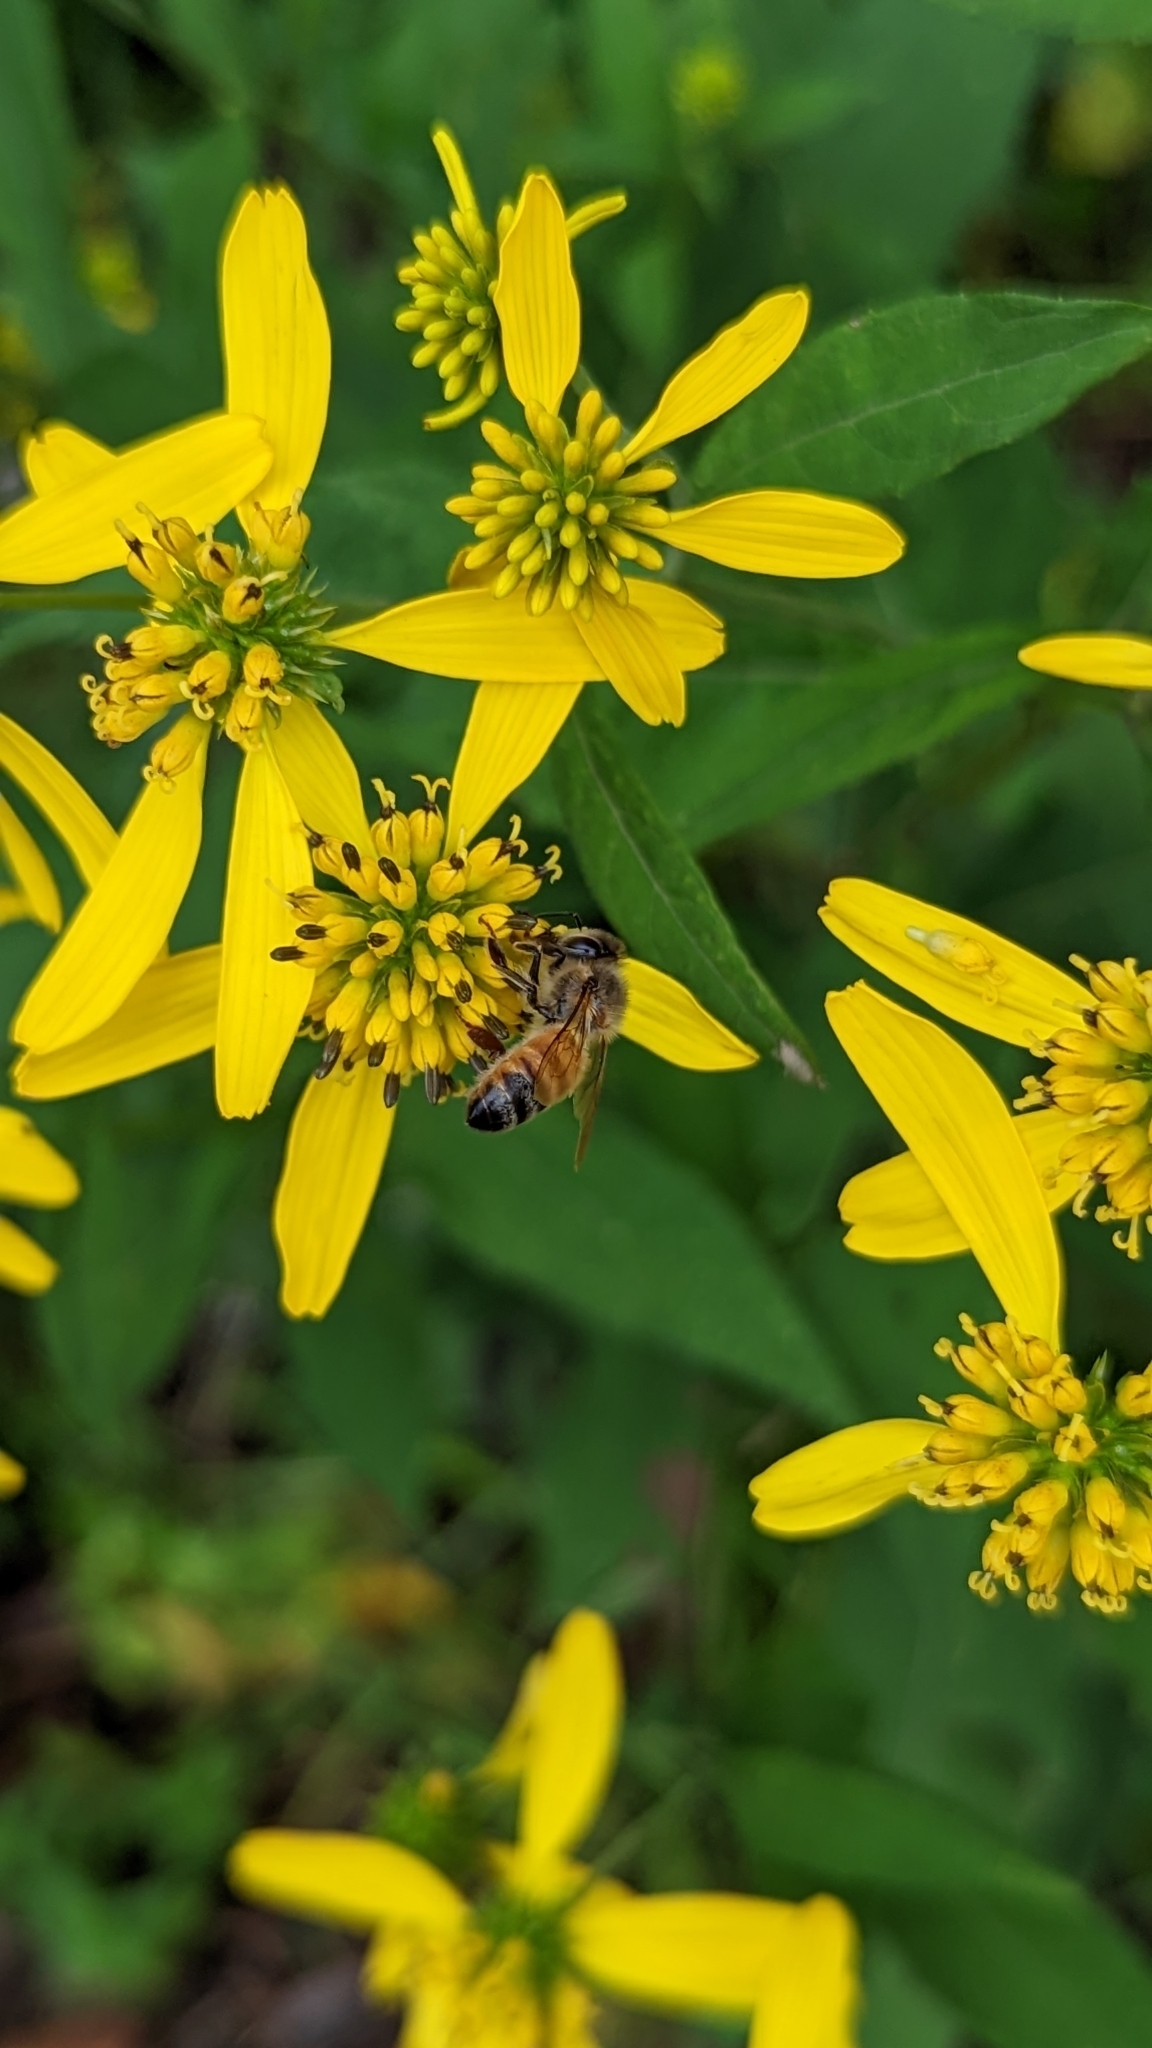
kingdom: Animalia
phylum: Arthropoda
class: Insecta
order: Hymenoptera
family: Apidae
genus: Apis
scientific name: Apis mellifera
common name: Honey bee
